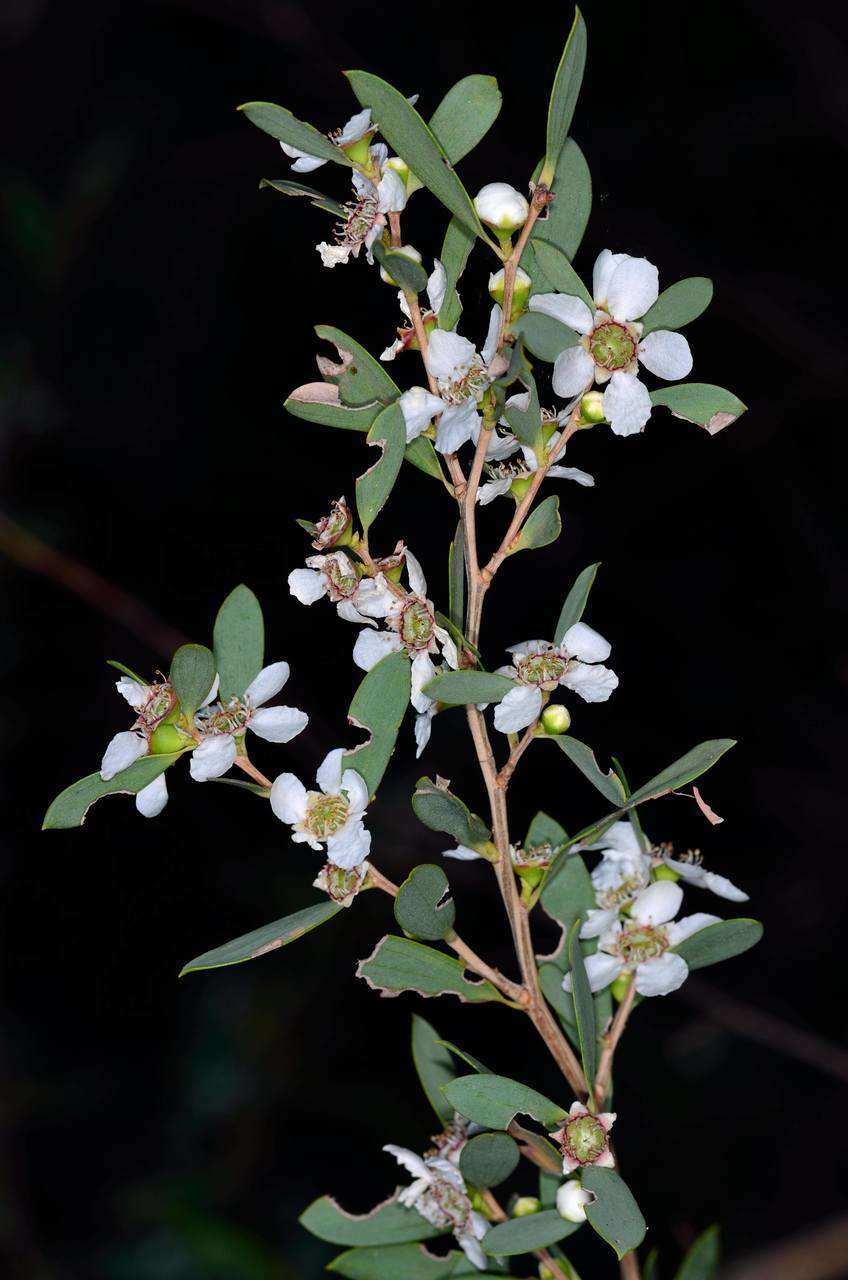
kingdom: Plantae
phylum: Tracheophyta
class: Magnoliopsida
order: Myrtales
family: Myrtaceae
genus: Leptospermum
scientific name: Leptospermum obovatum
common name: River teatree
